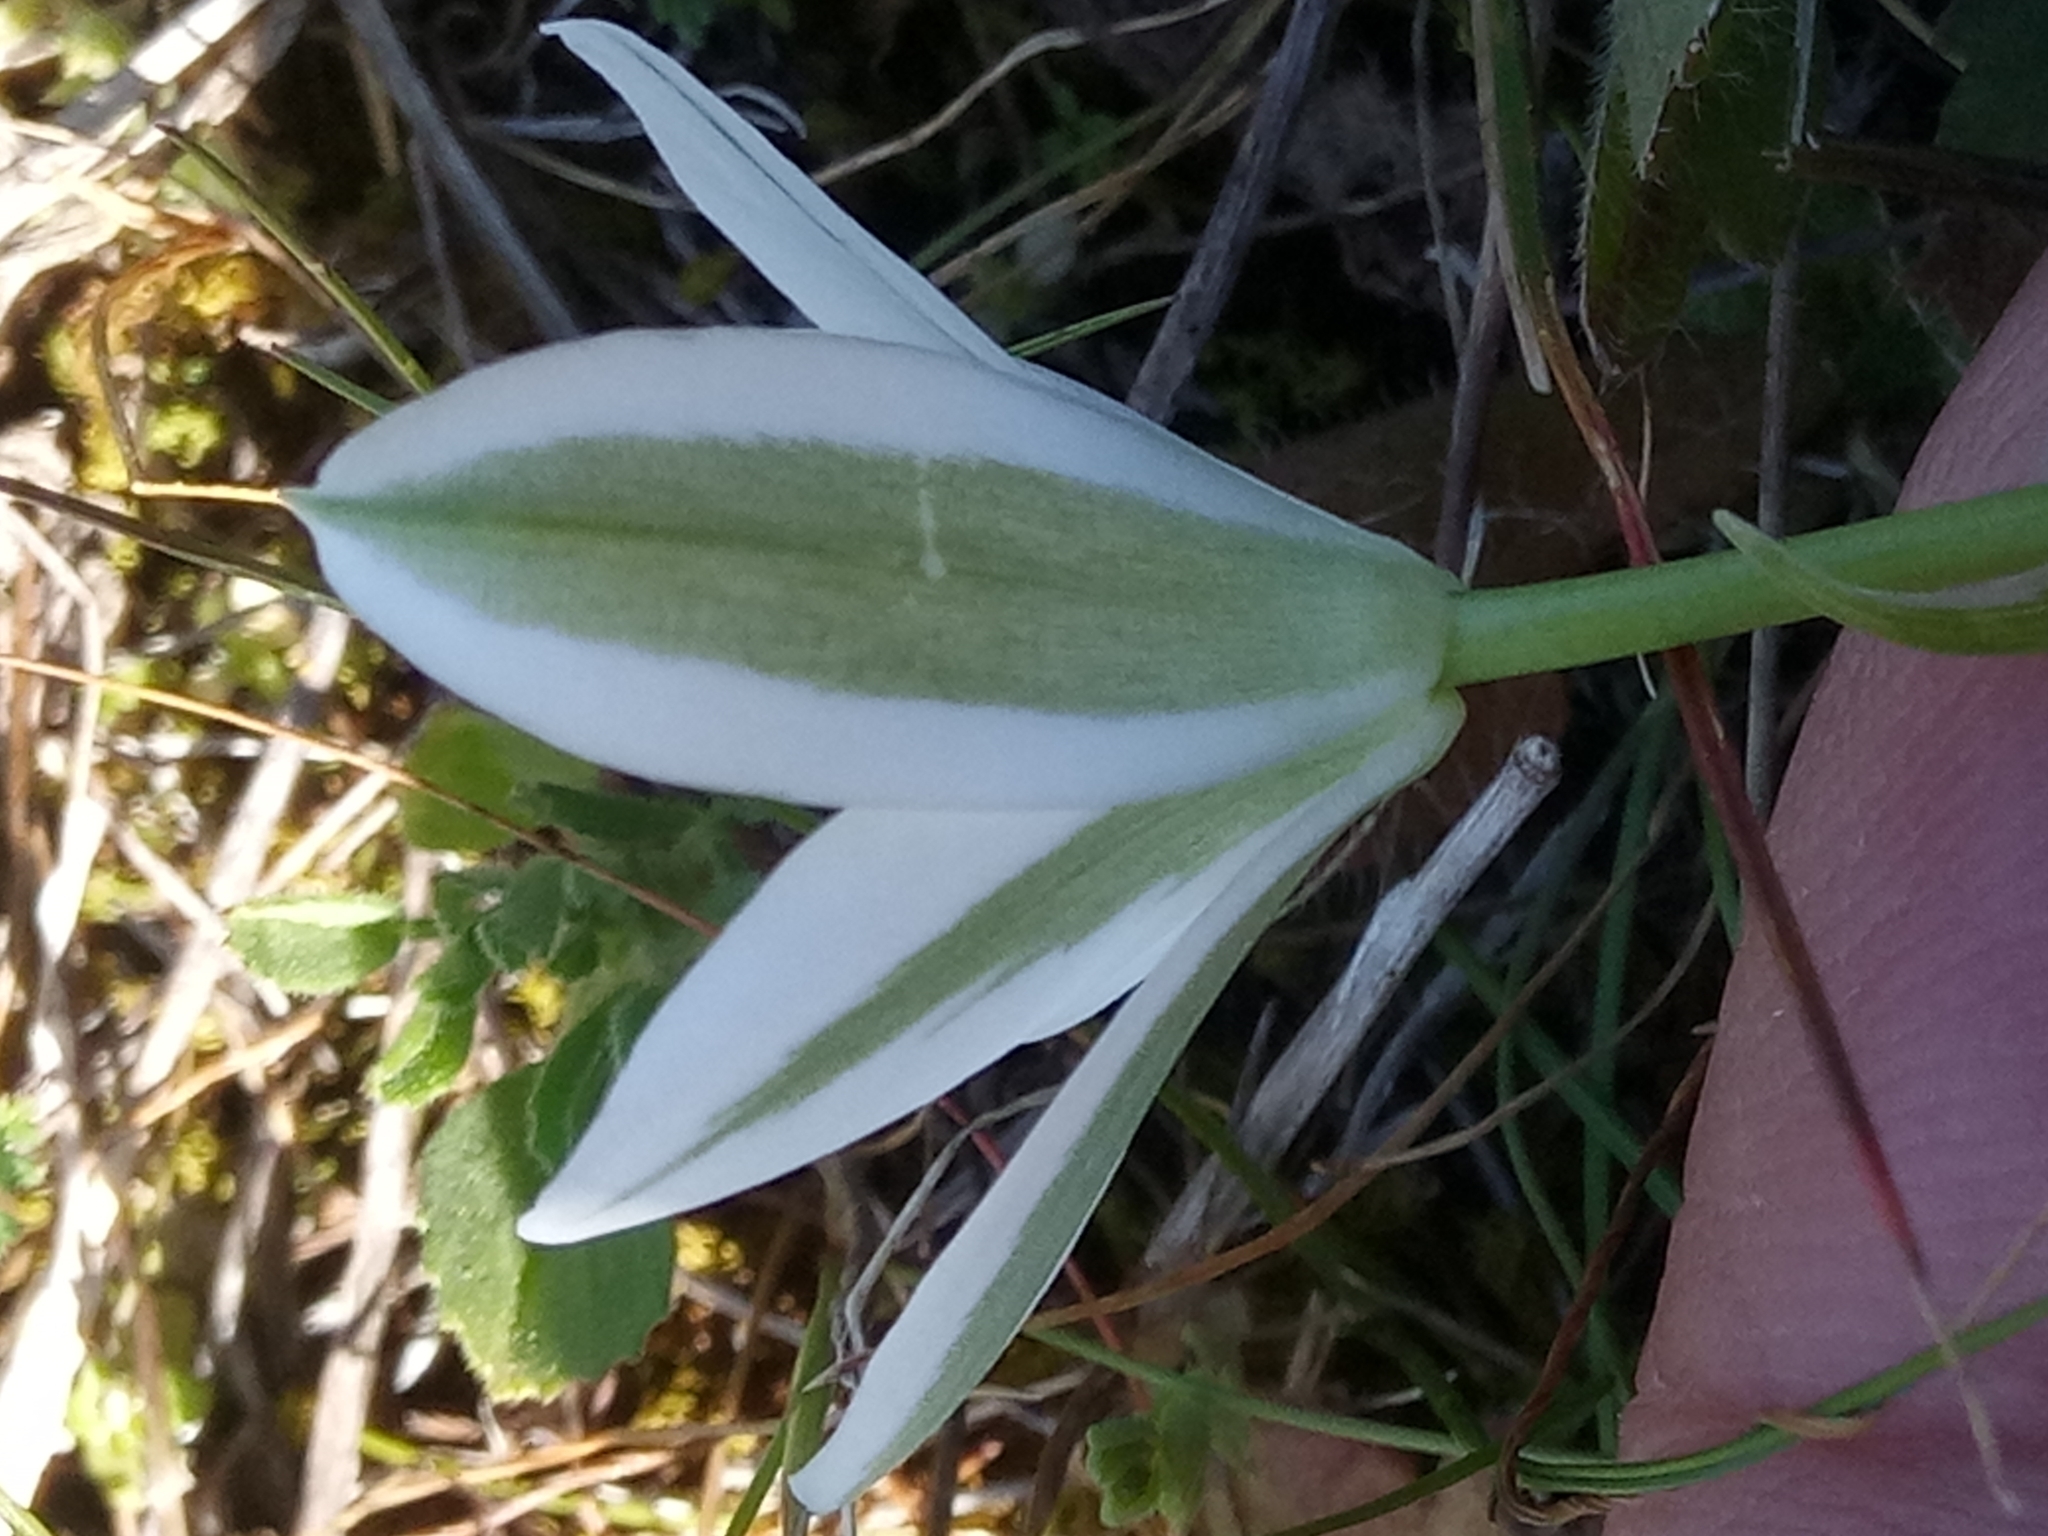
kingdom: Plantae
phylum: Tracheophyta
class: Liliopsida
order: Asparagales
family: Asparagaceae
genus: Ornithogalum
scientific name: Ornithogalum baeticum
